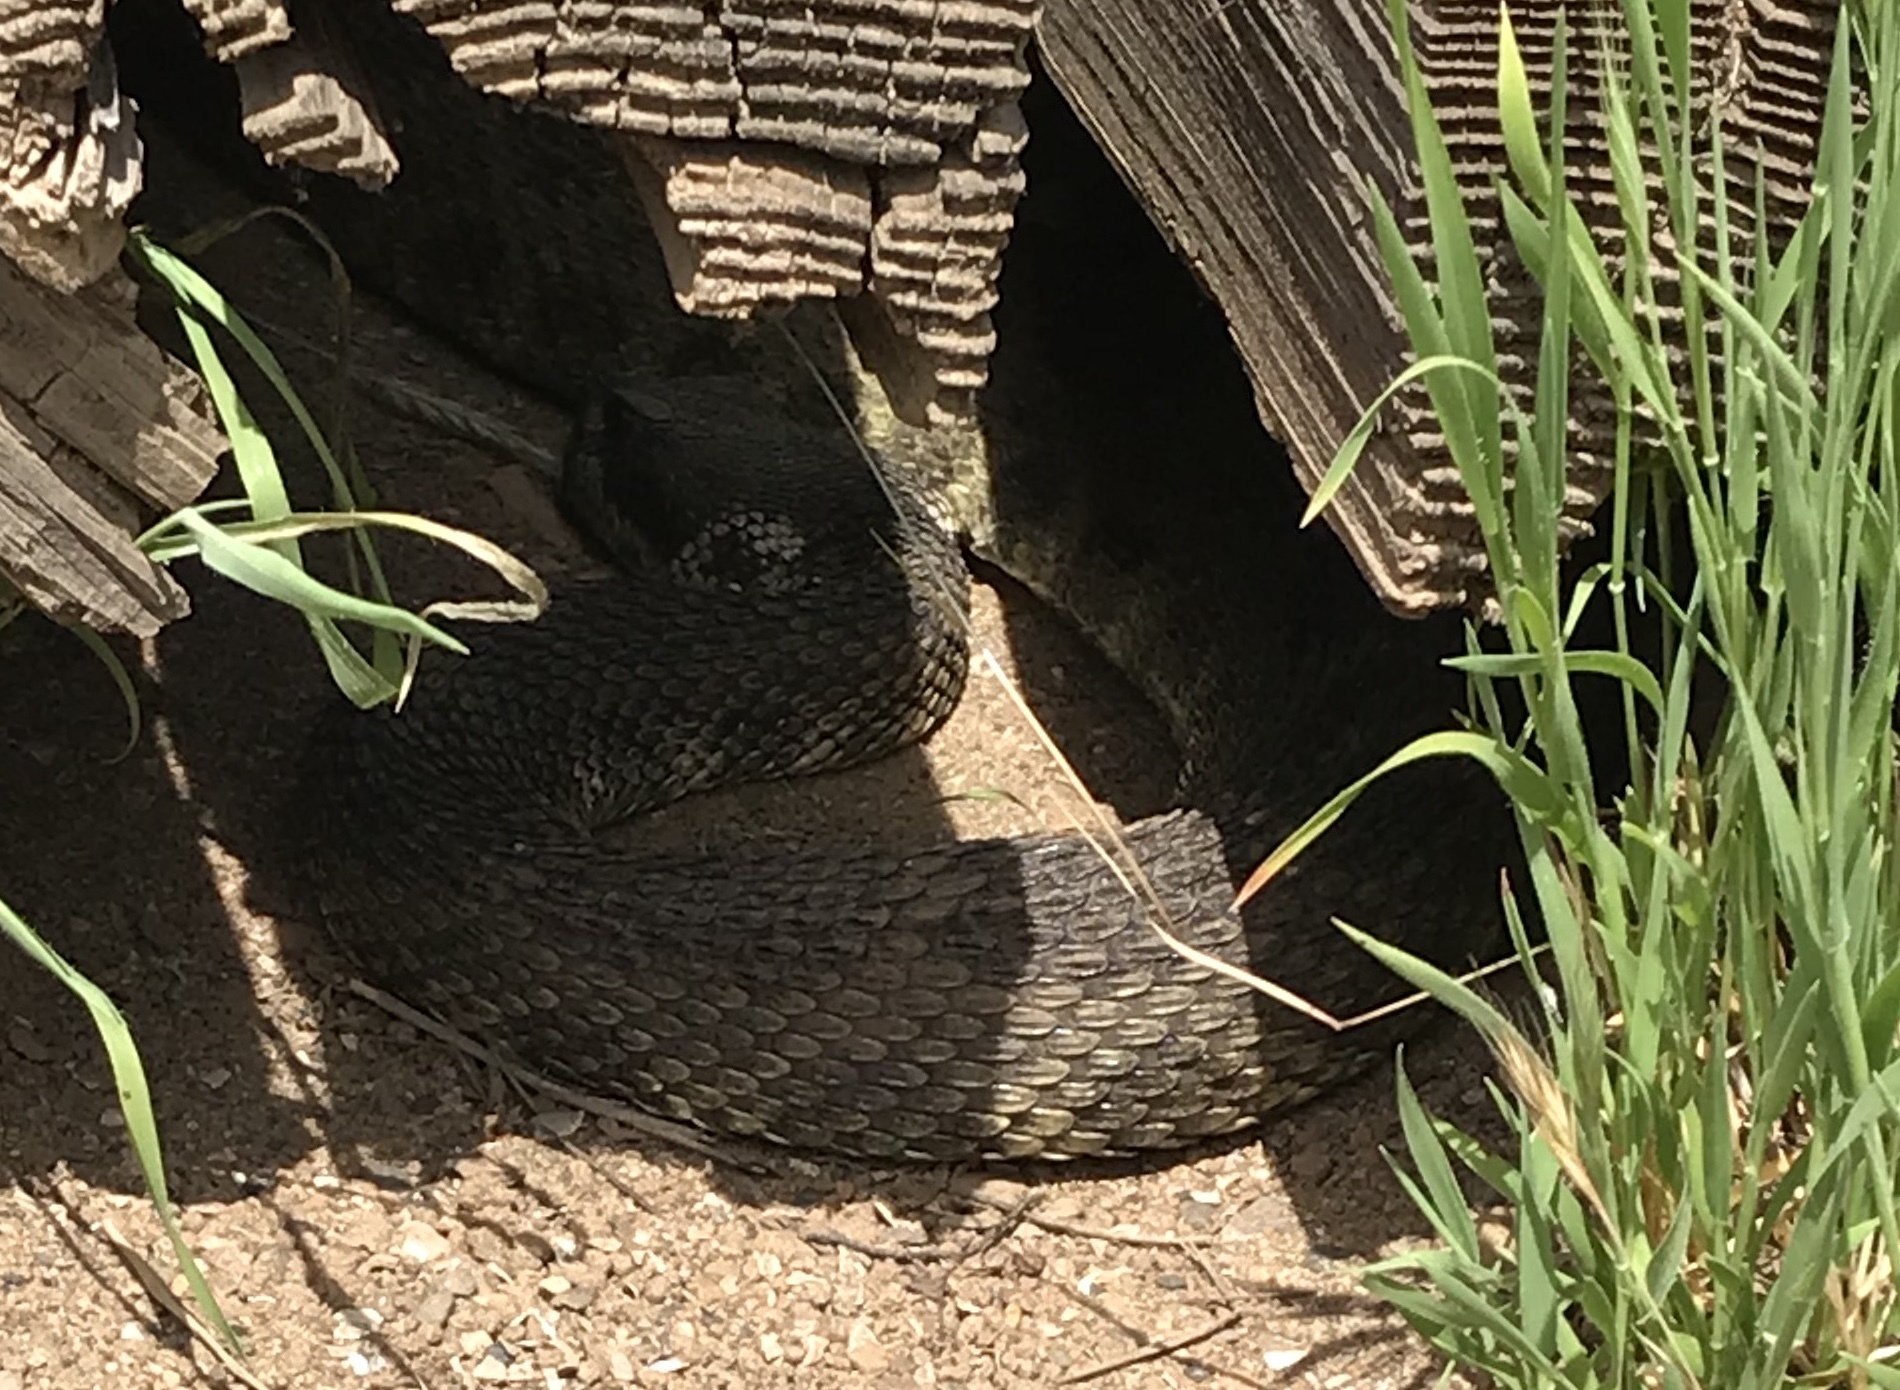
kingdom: Animalia
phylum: Chordata
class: Squamata
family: Viperidae
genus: Crotalus
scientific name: Crotalus oreganus
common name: Abyssus
